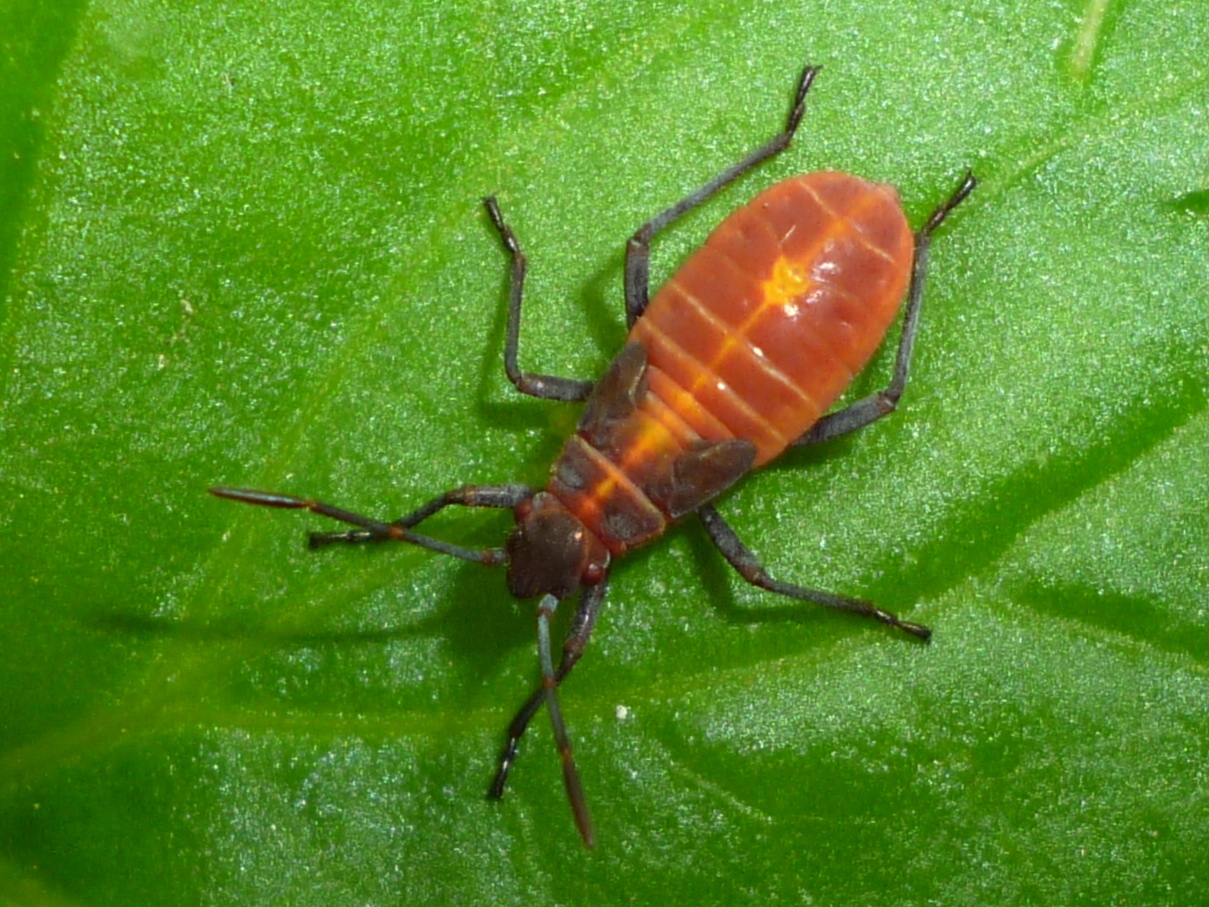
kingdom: Animalia
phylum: Arthropoda
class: Insecta
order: Hemiptera
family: Rhopalidae
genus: Boisea
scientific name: Boisea trivittata
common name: Boxelder bug
